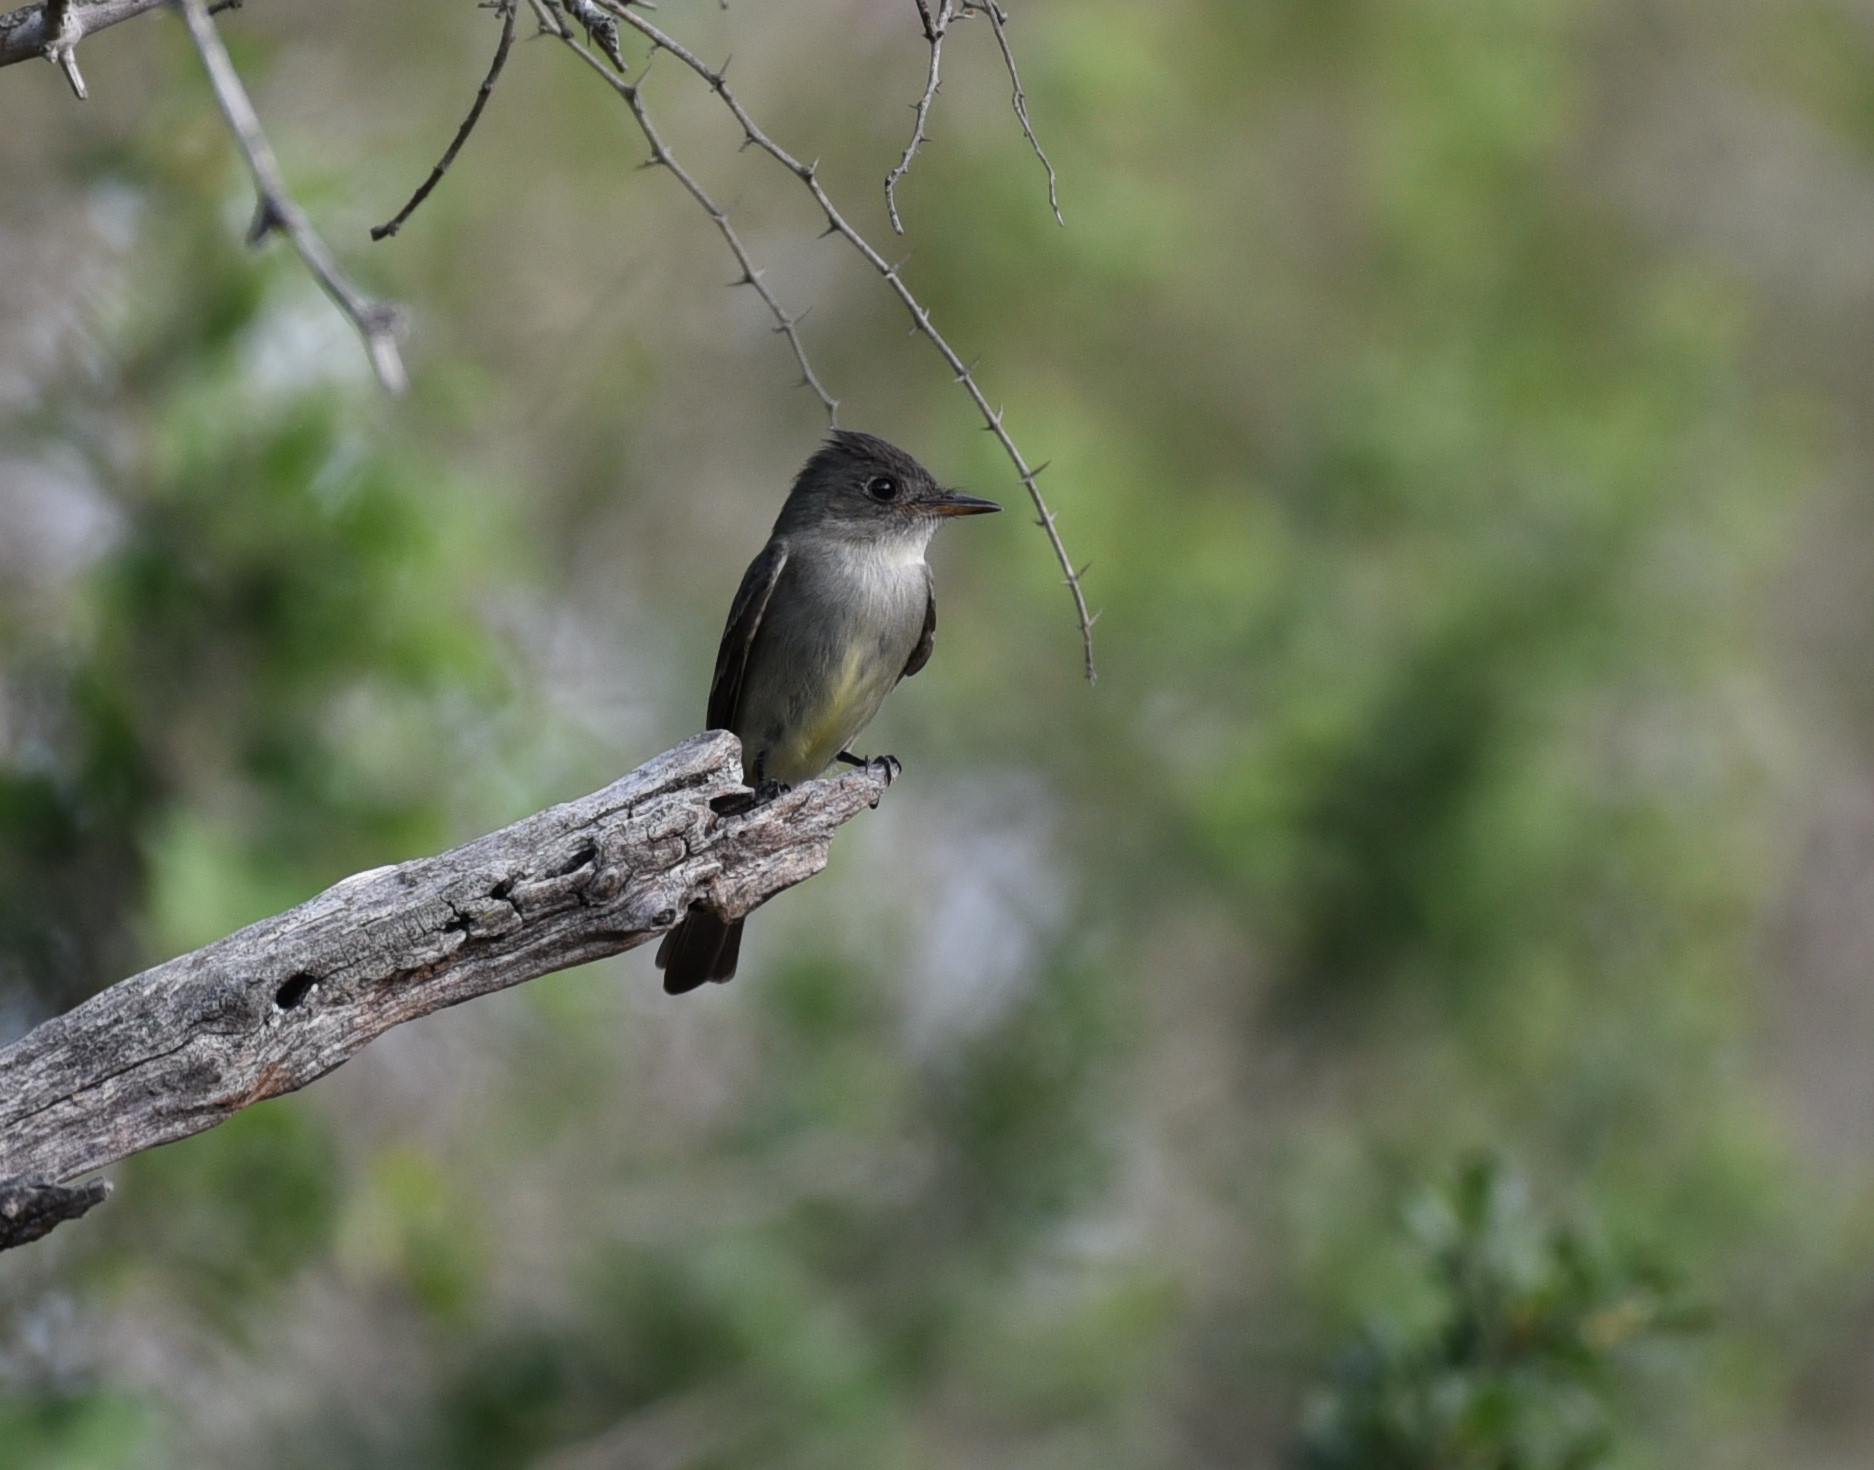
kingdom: Animalia
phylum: Chordata
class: Aves
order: Passeriformes
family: Tyrannidae
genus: Contopus
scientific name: Contopus virens
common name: Eastern wood-pewee
